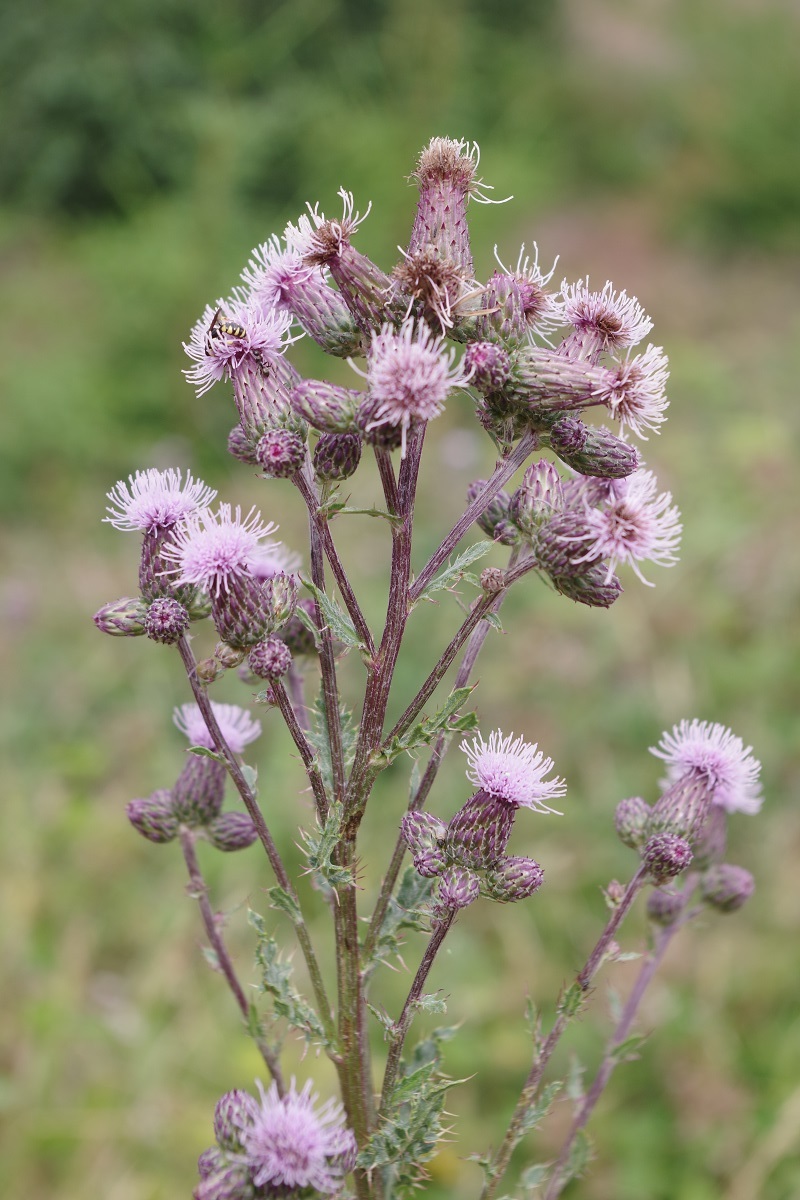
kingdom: Plantae
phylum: Tracheophyta
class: Magnoliopsida
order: Asterales
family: Asteraceae
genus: Cirsium
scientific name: Cirsium arvense
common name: Creeping thistle
